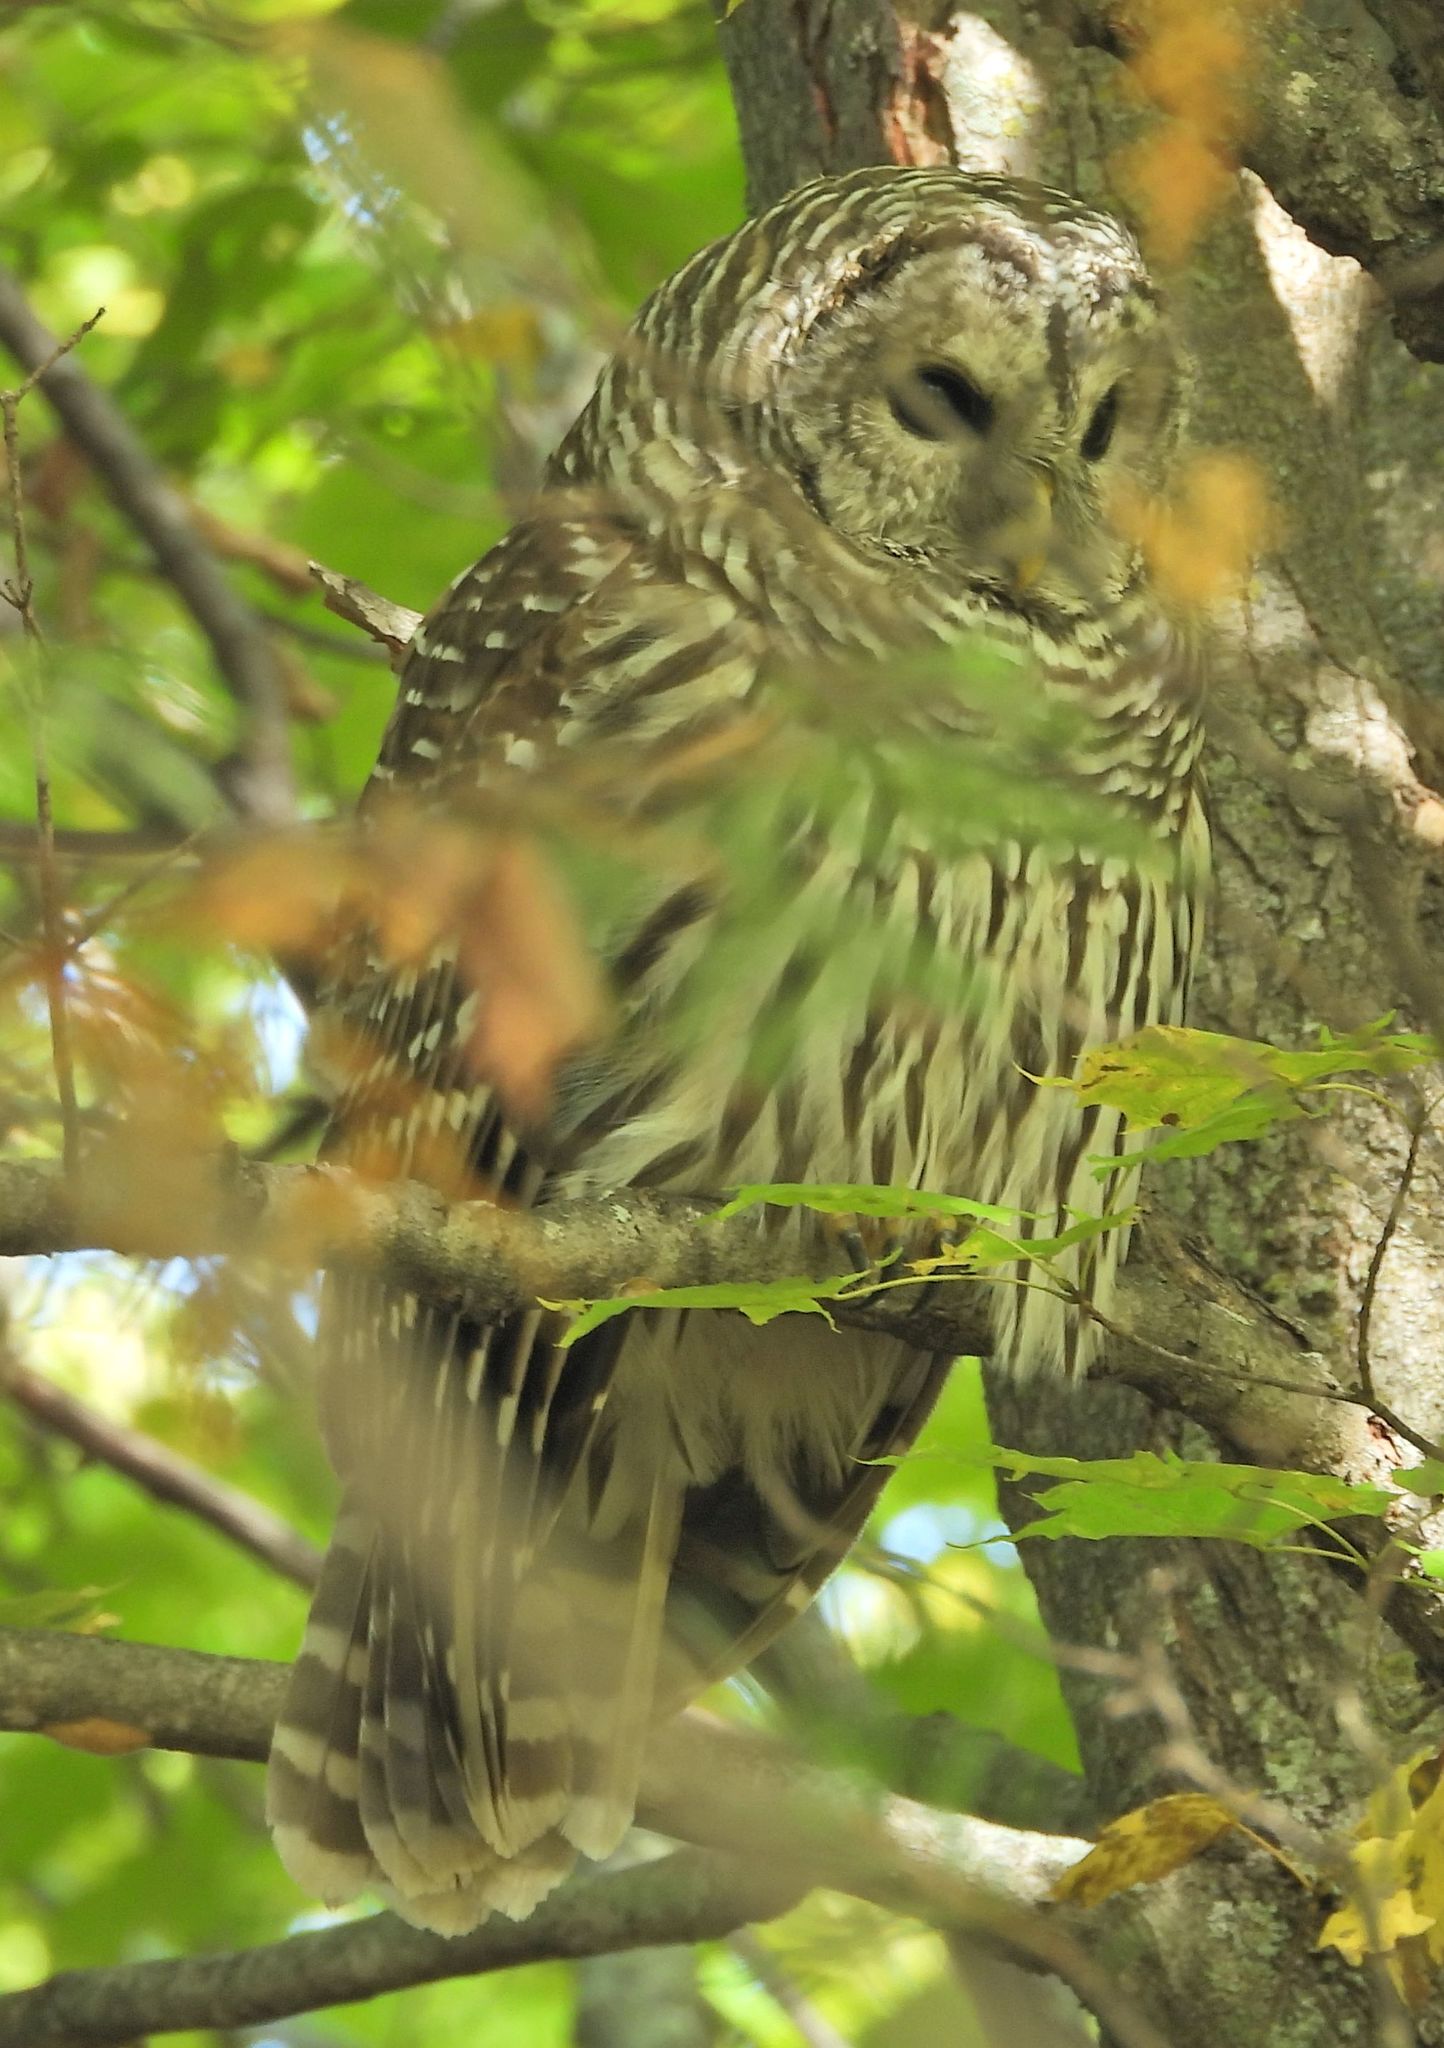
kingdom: Animalia
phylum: Chordata
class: Aves
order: Strigiformes
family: Strigidae
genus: Strix
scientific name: Strix varia
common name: Barred owl
